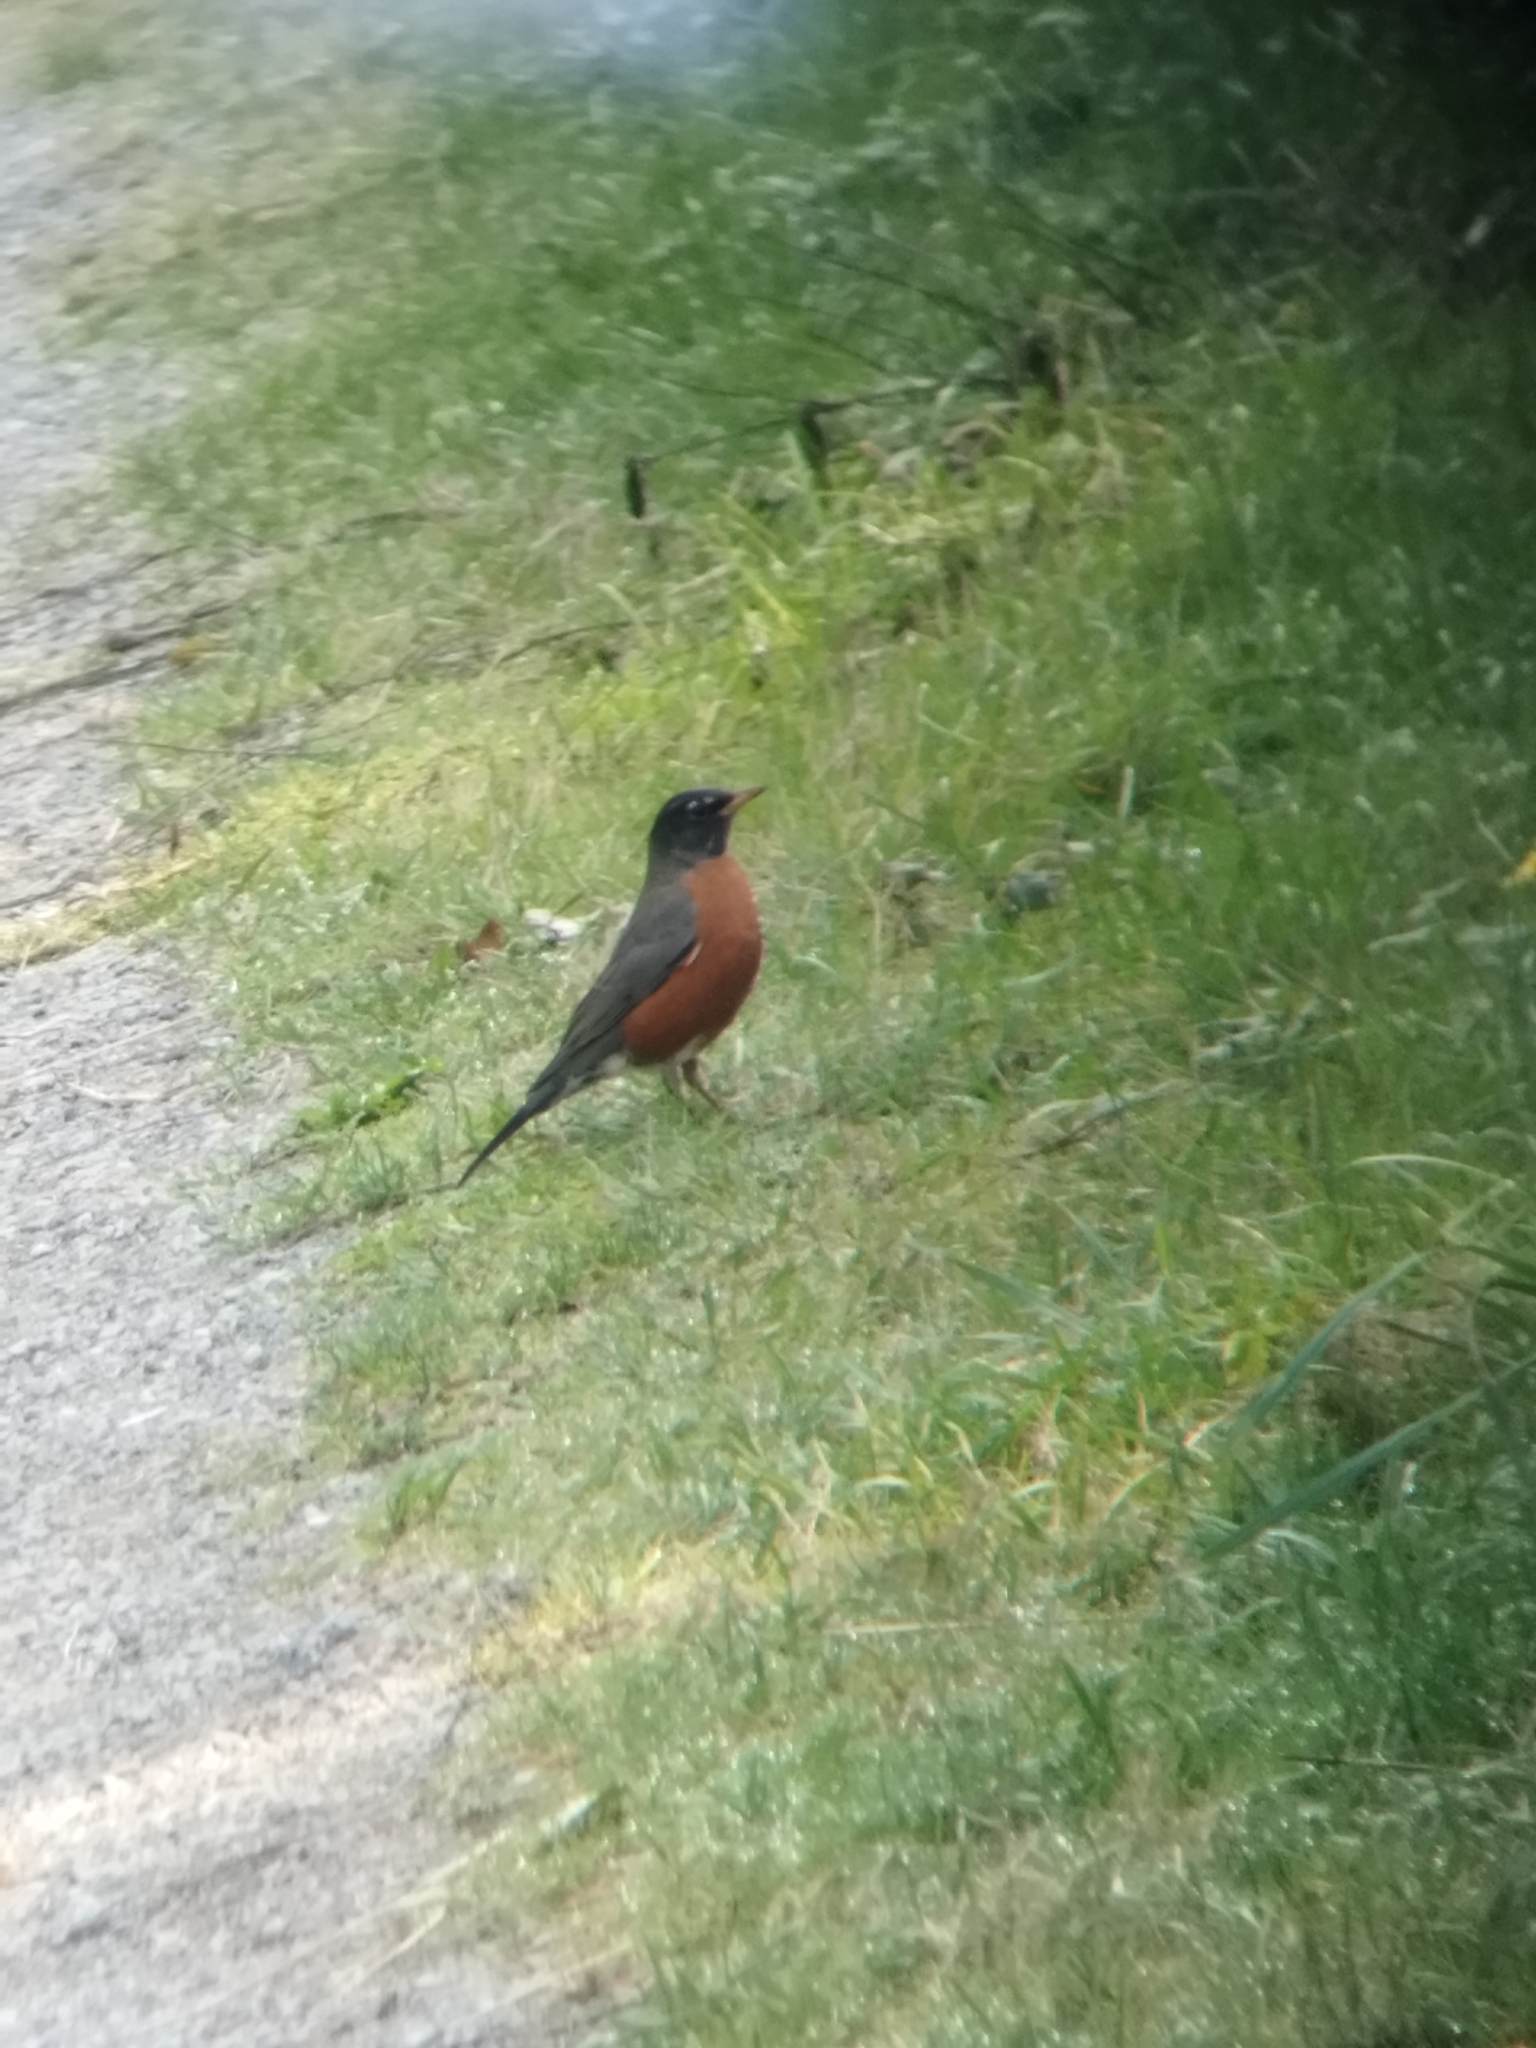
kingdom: Animalia
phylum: Chordata
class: Aves
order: Passeriformes
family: Turdidae
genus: Turdus
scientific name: Turdus migratorius
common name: American robin
